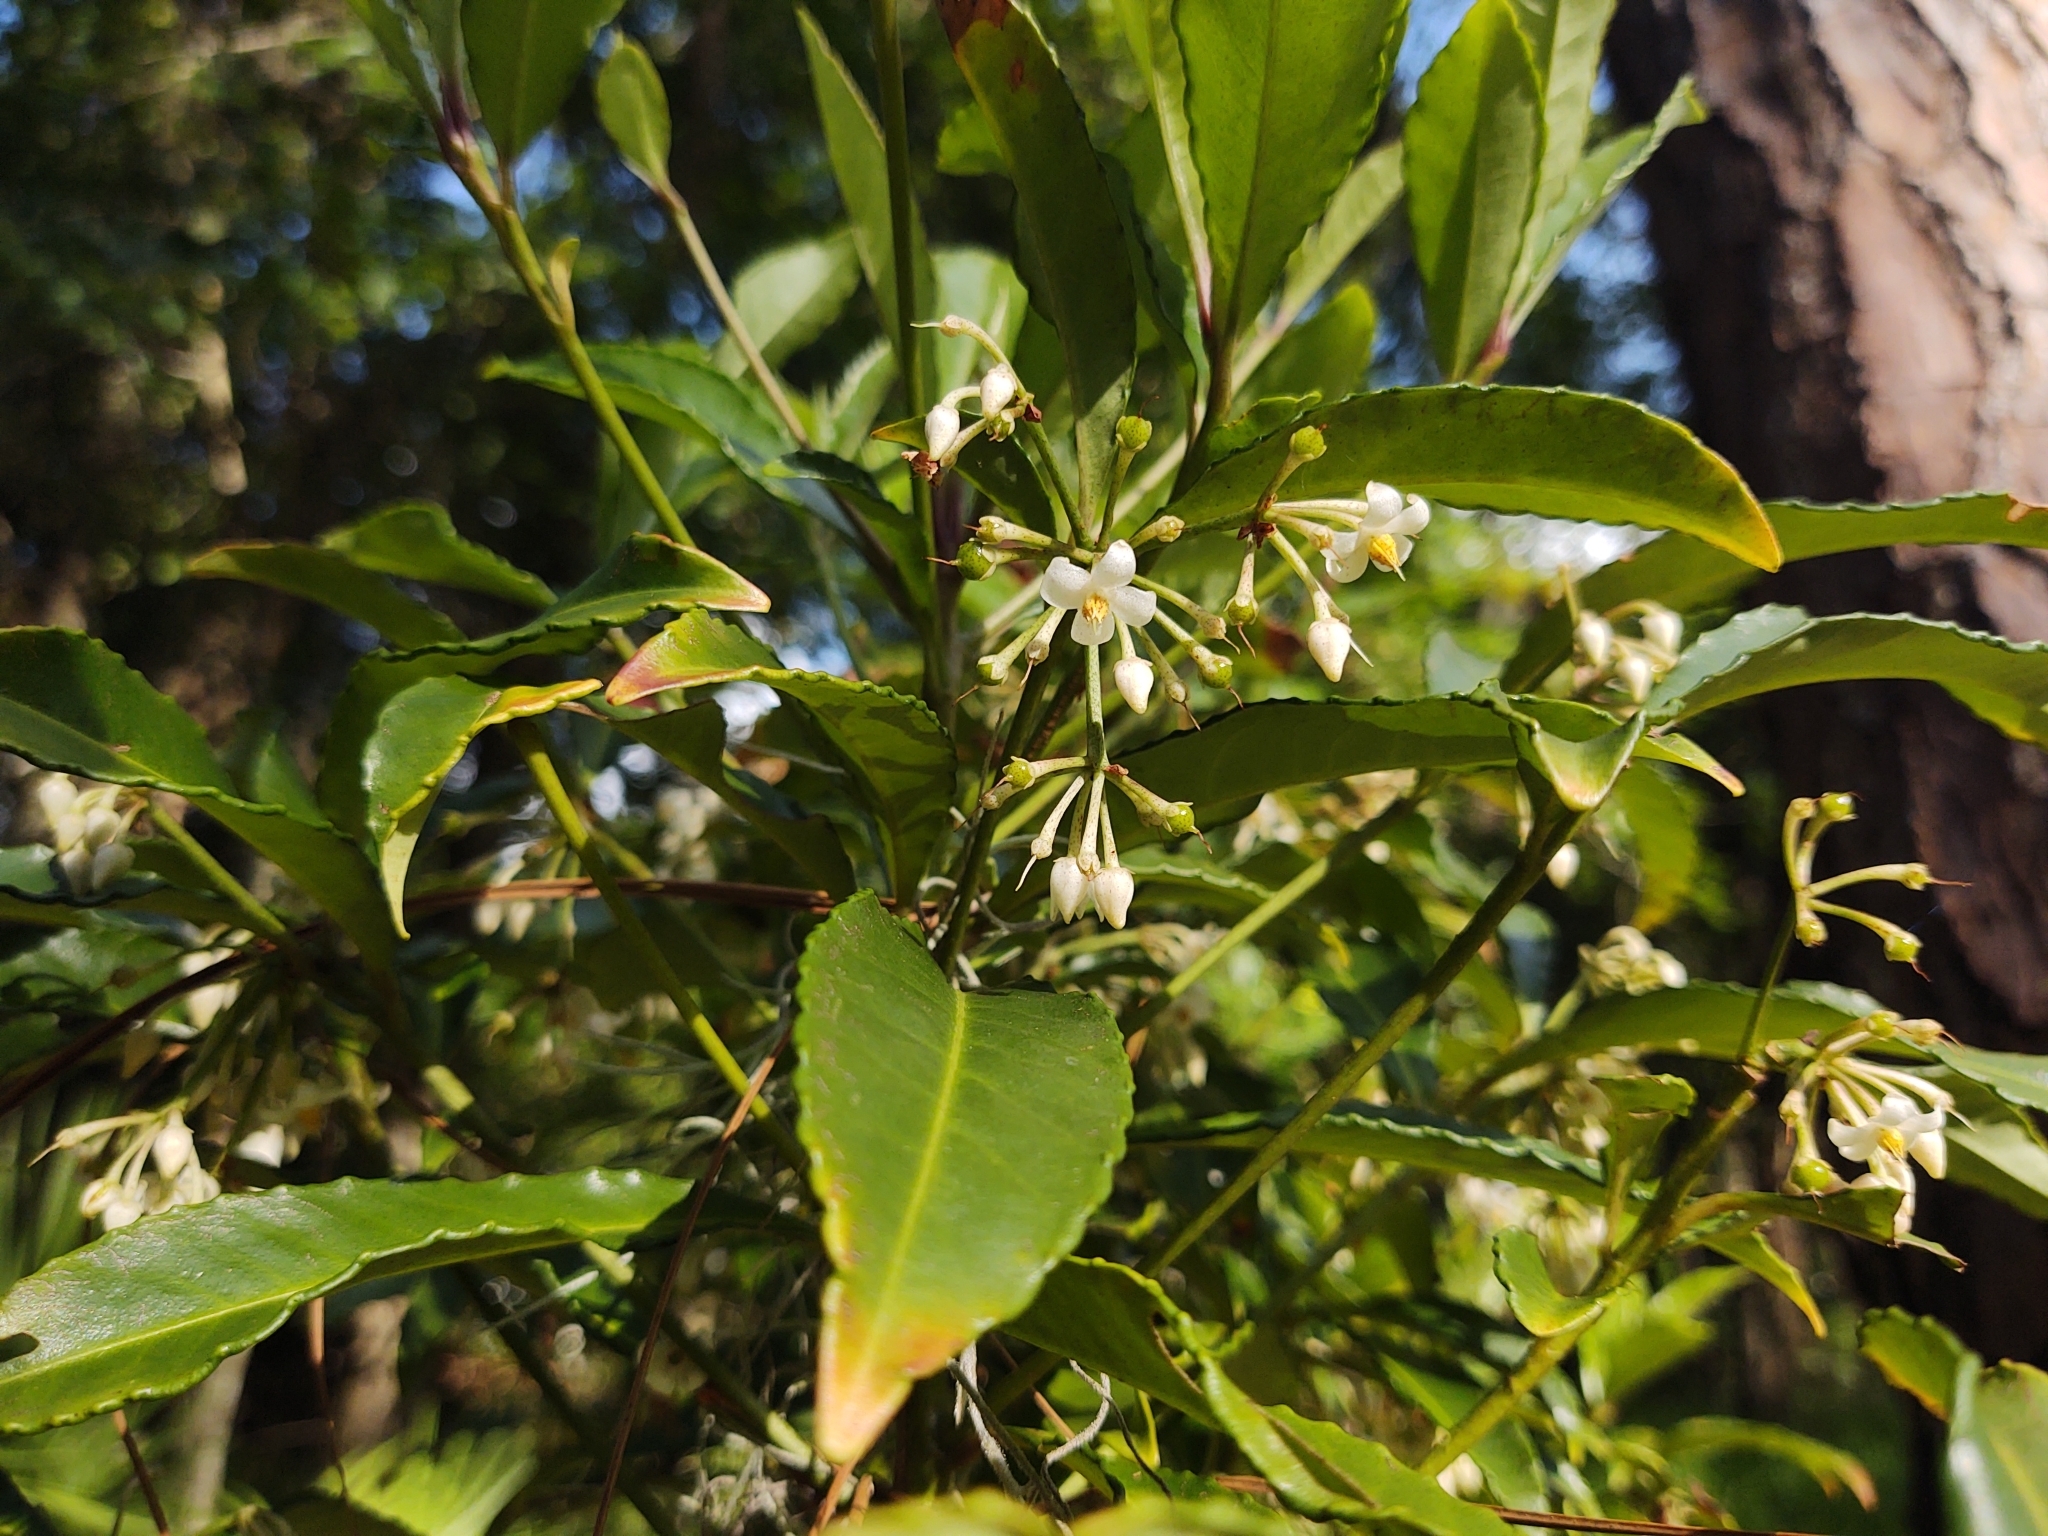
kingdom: Plantae
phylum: Tracheophyta
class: Magnoliopsida
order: Ericales
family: Primulaceae
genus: Ardisia
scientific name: Ardisia crenata
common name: Hen's eyes
